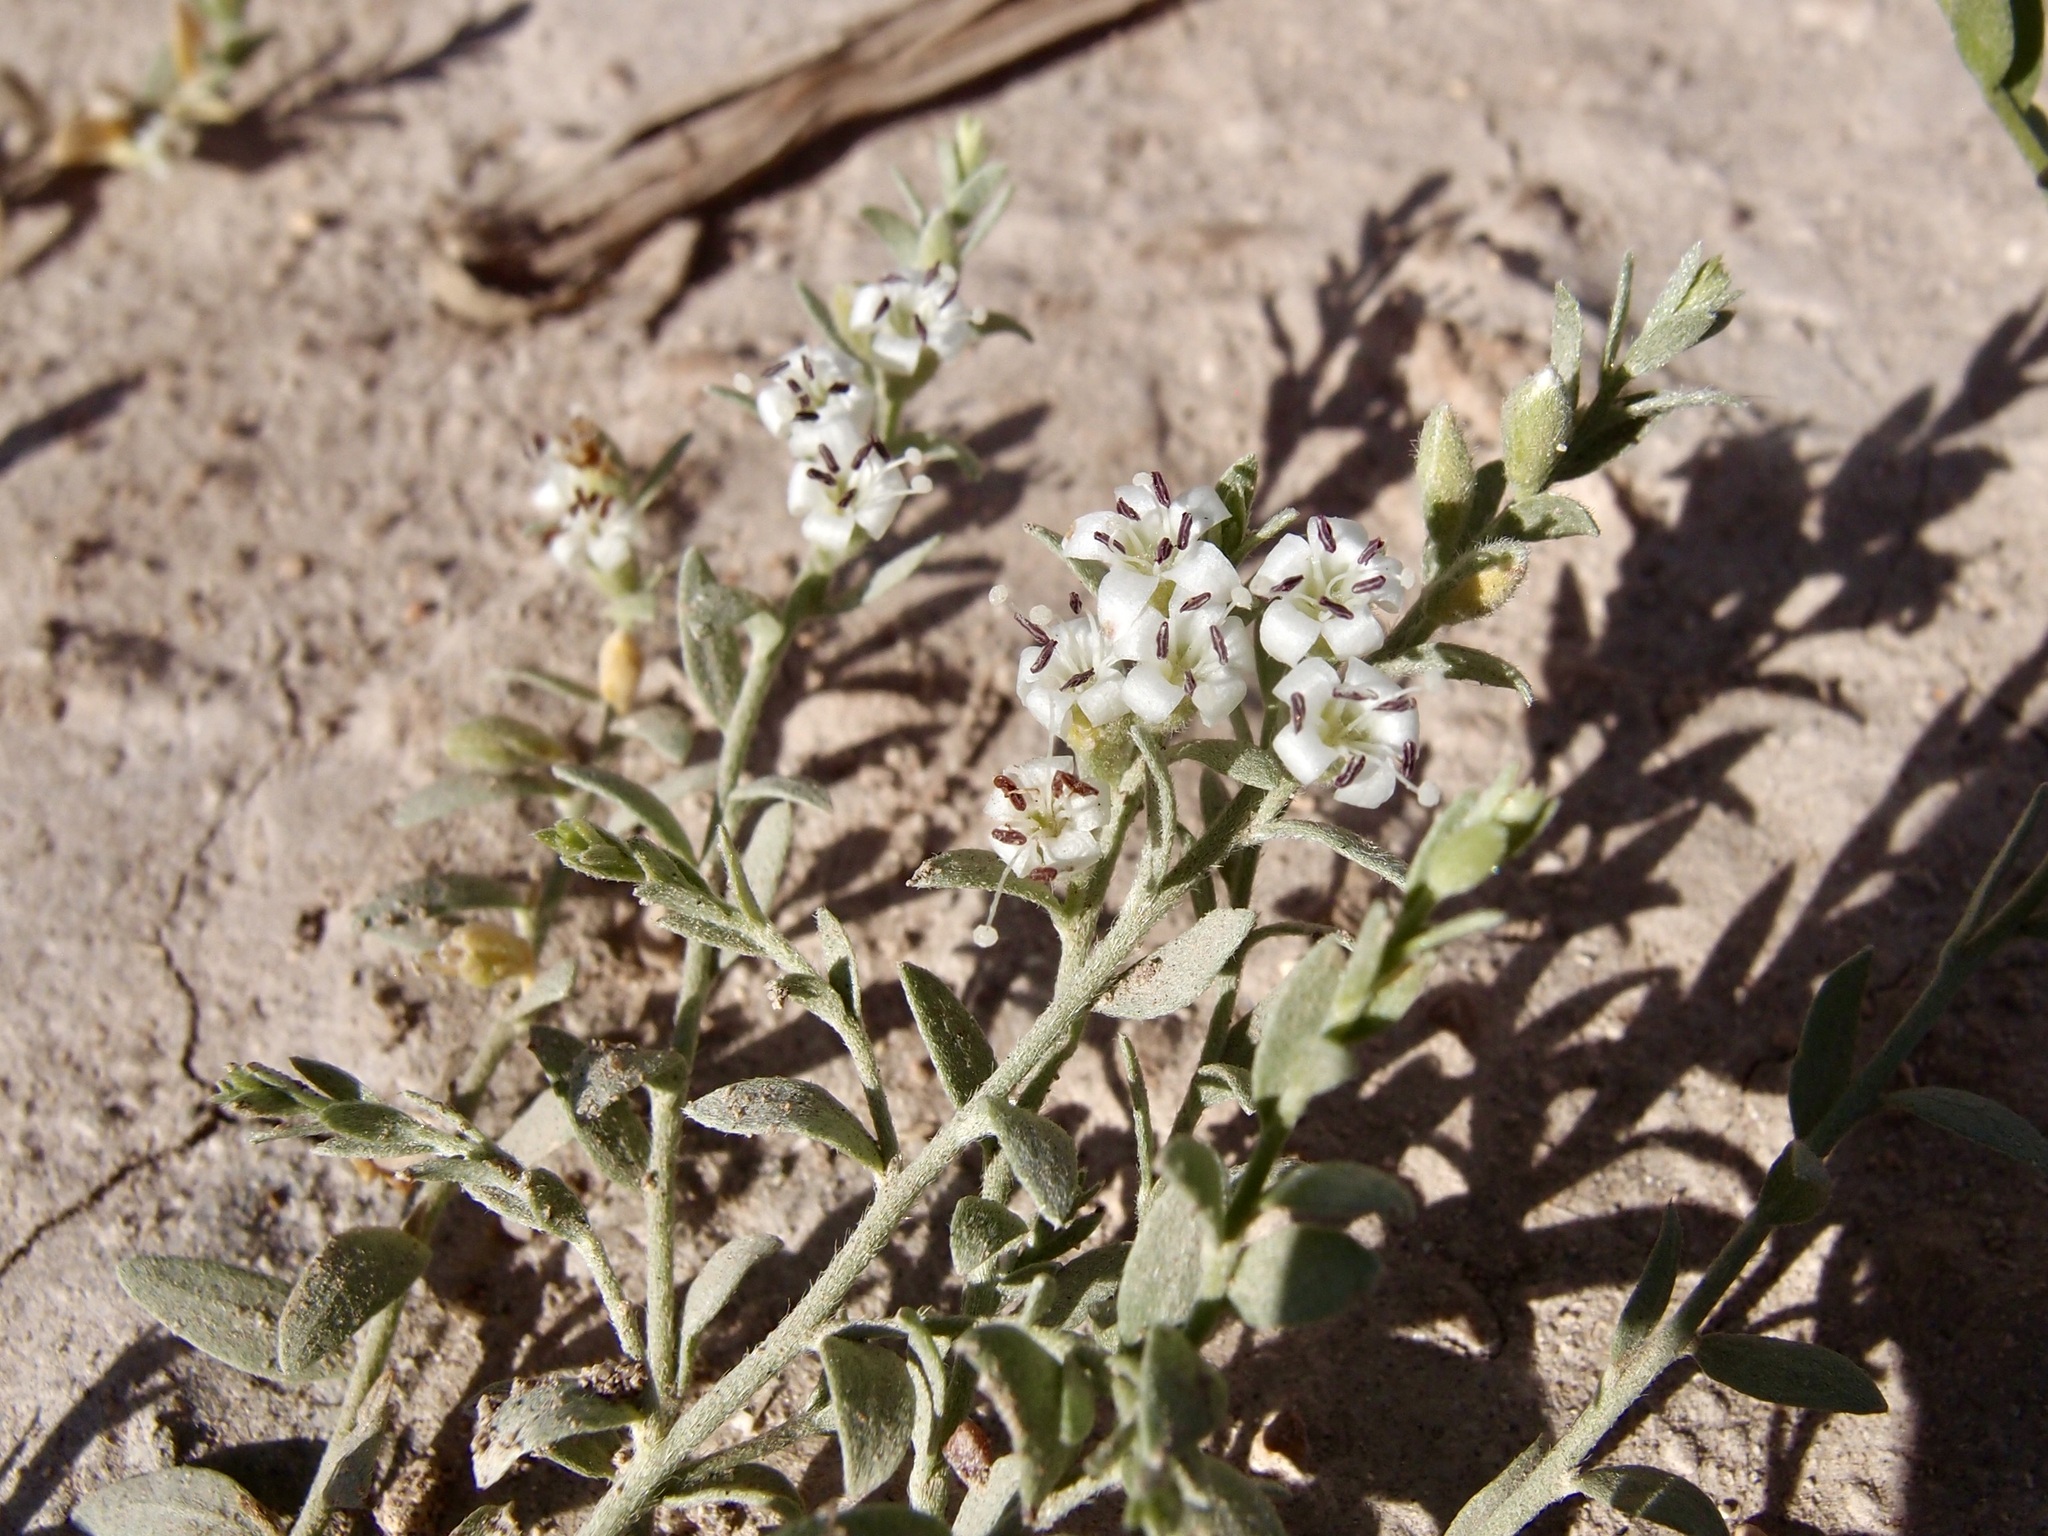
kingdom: Plantae
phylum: Tracheophyta
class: Magnoliopsida
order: Solanales
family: Convolvulaceae
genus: Cressa
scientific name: Cressa truxillensis
